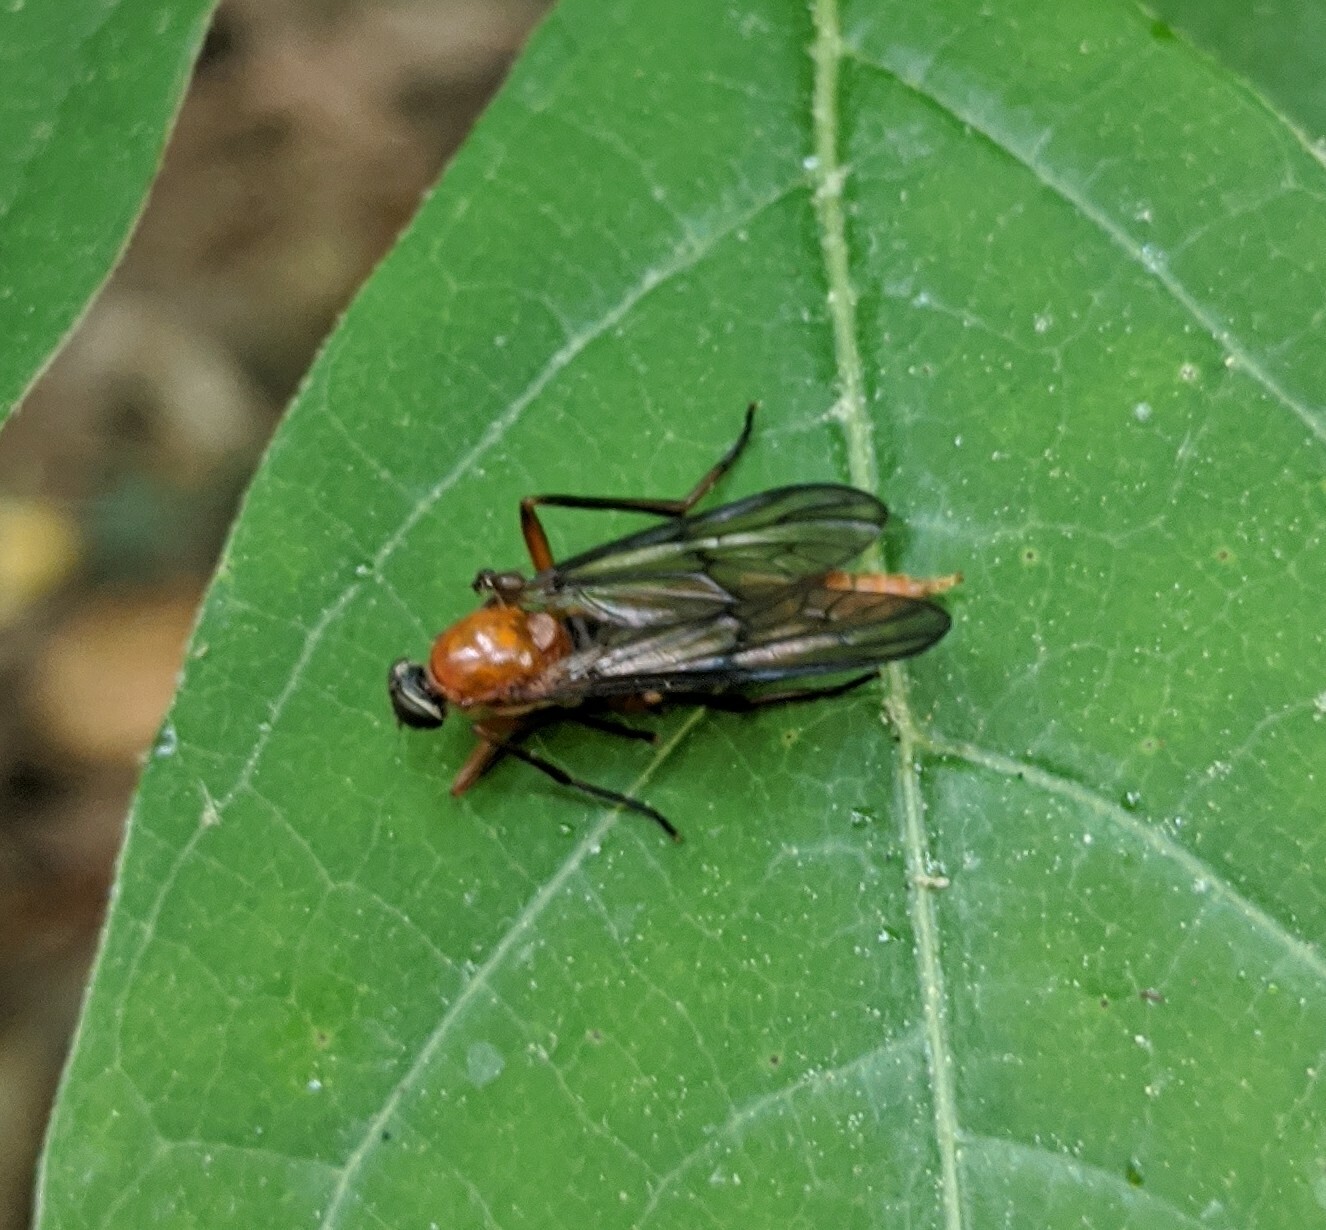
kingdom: Animalia
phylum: Arthropoda
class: Insecta
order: Diptera
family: Xylophagidae
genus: Dialysis
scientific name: Dialysis rufithorax
